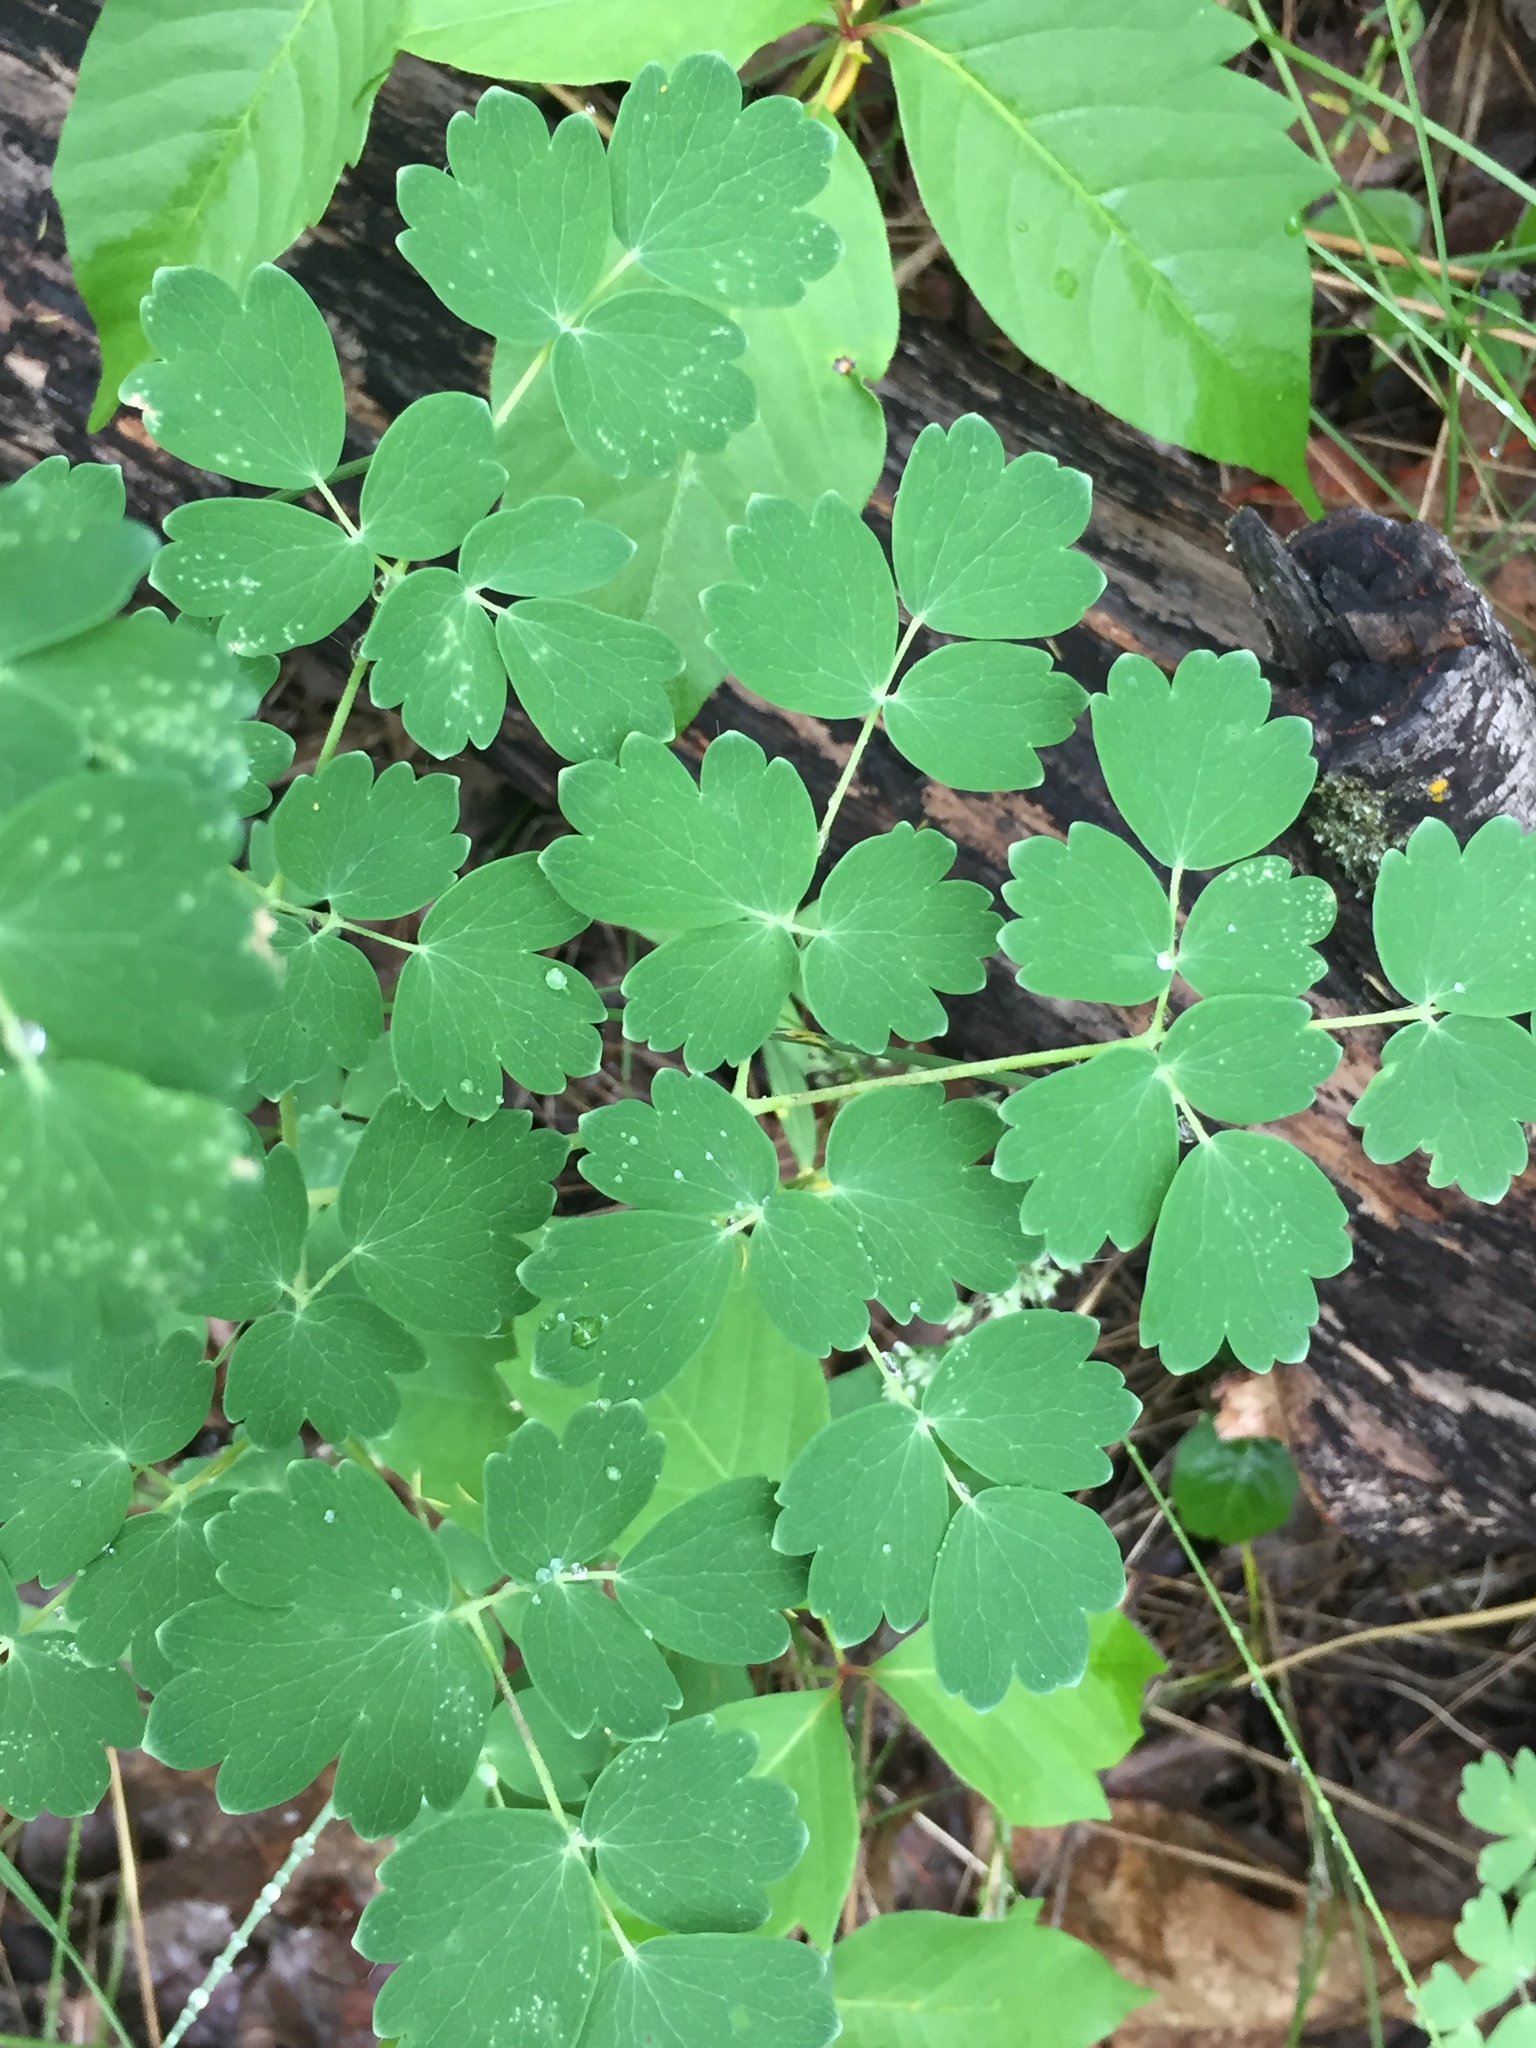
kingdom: Plantae
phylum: Tracheophyta
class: Magnoliopsida
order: Ranunculales
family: Ranunculaceae
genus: Thalictrum
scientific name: Thalictrum venulosum
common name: Early meadow-rue
